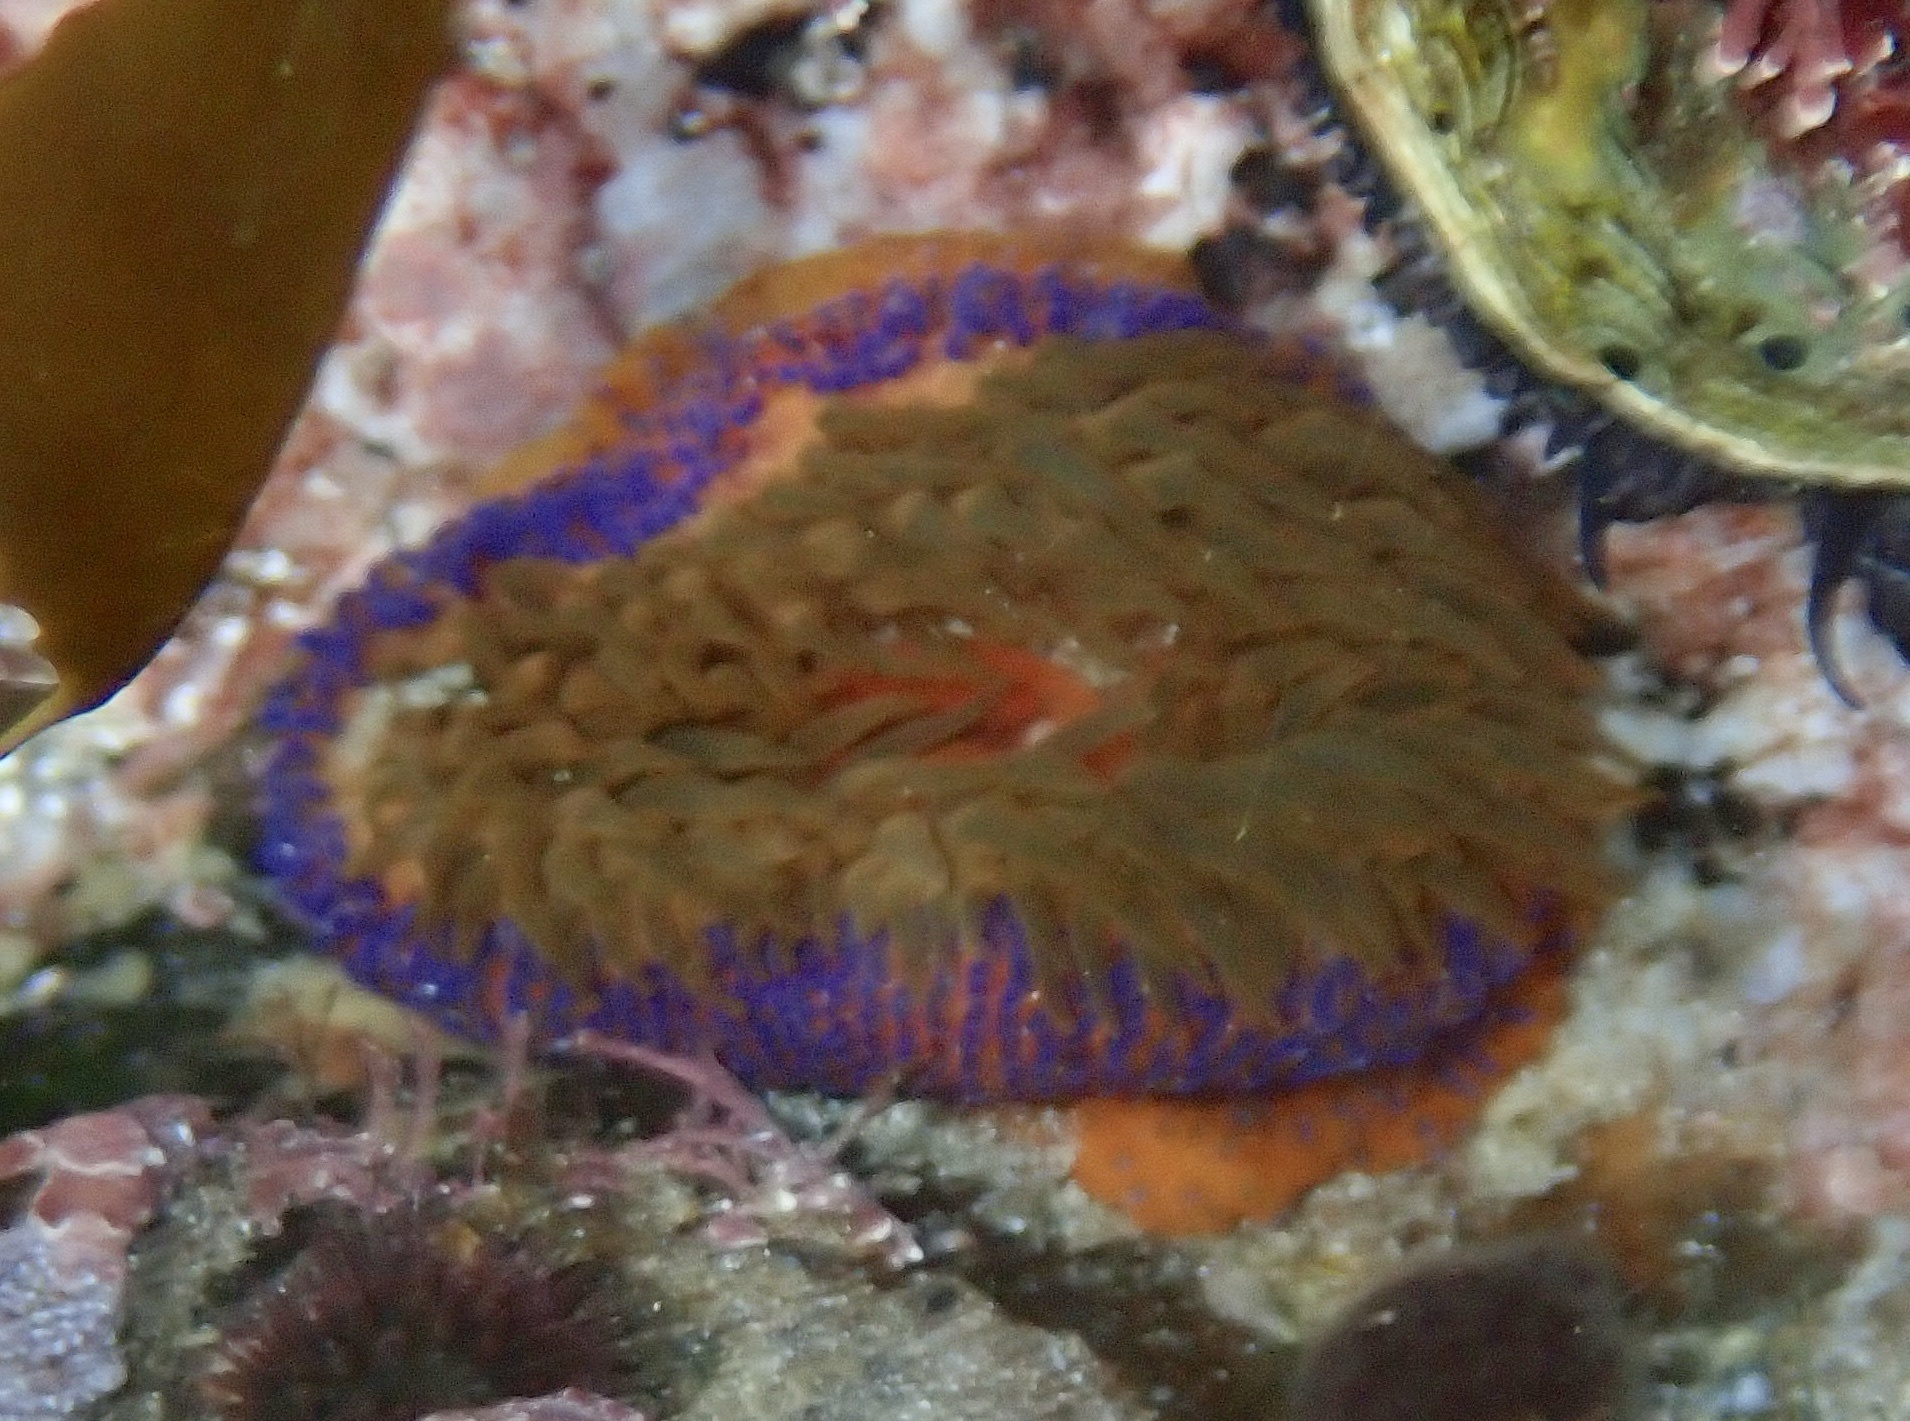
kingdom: Animalia
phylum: Cnidaria
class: Anthozoa
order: Actiniaria
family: Actiniidae
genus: Bunodosoma
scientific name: Bunodosoma capense
